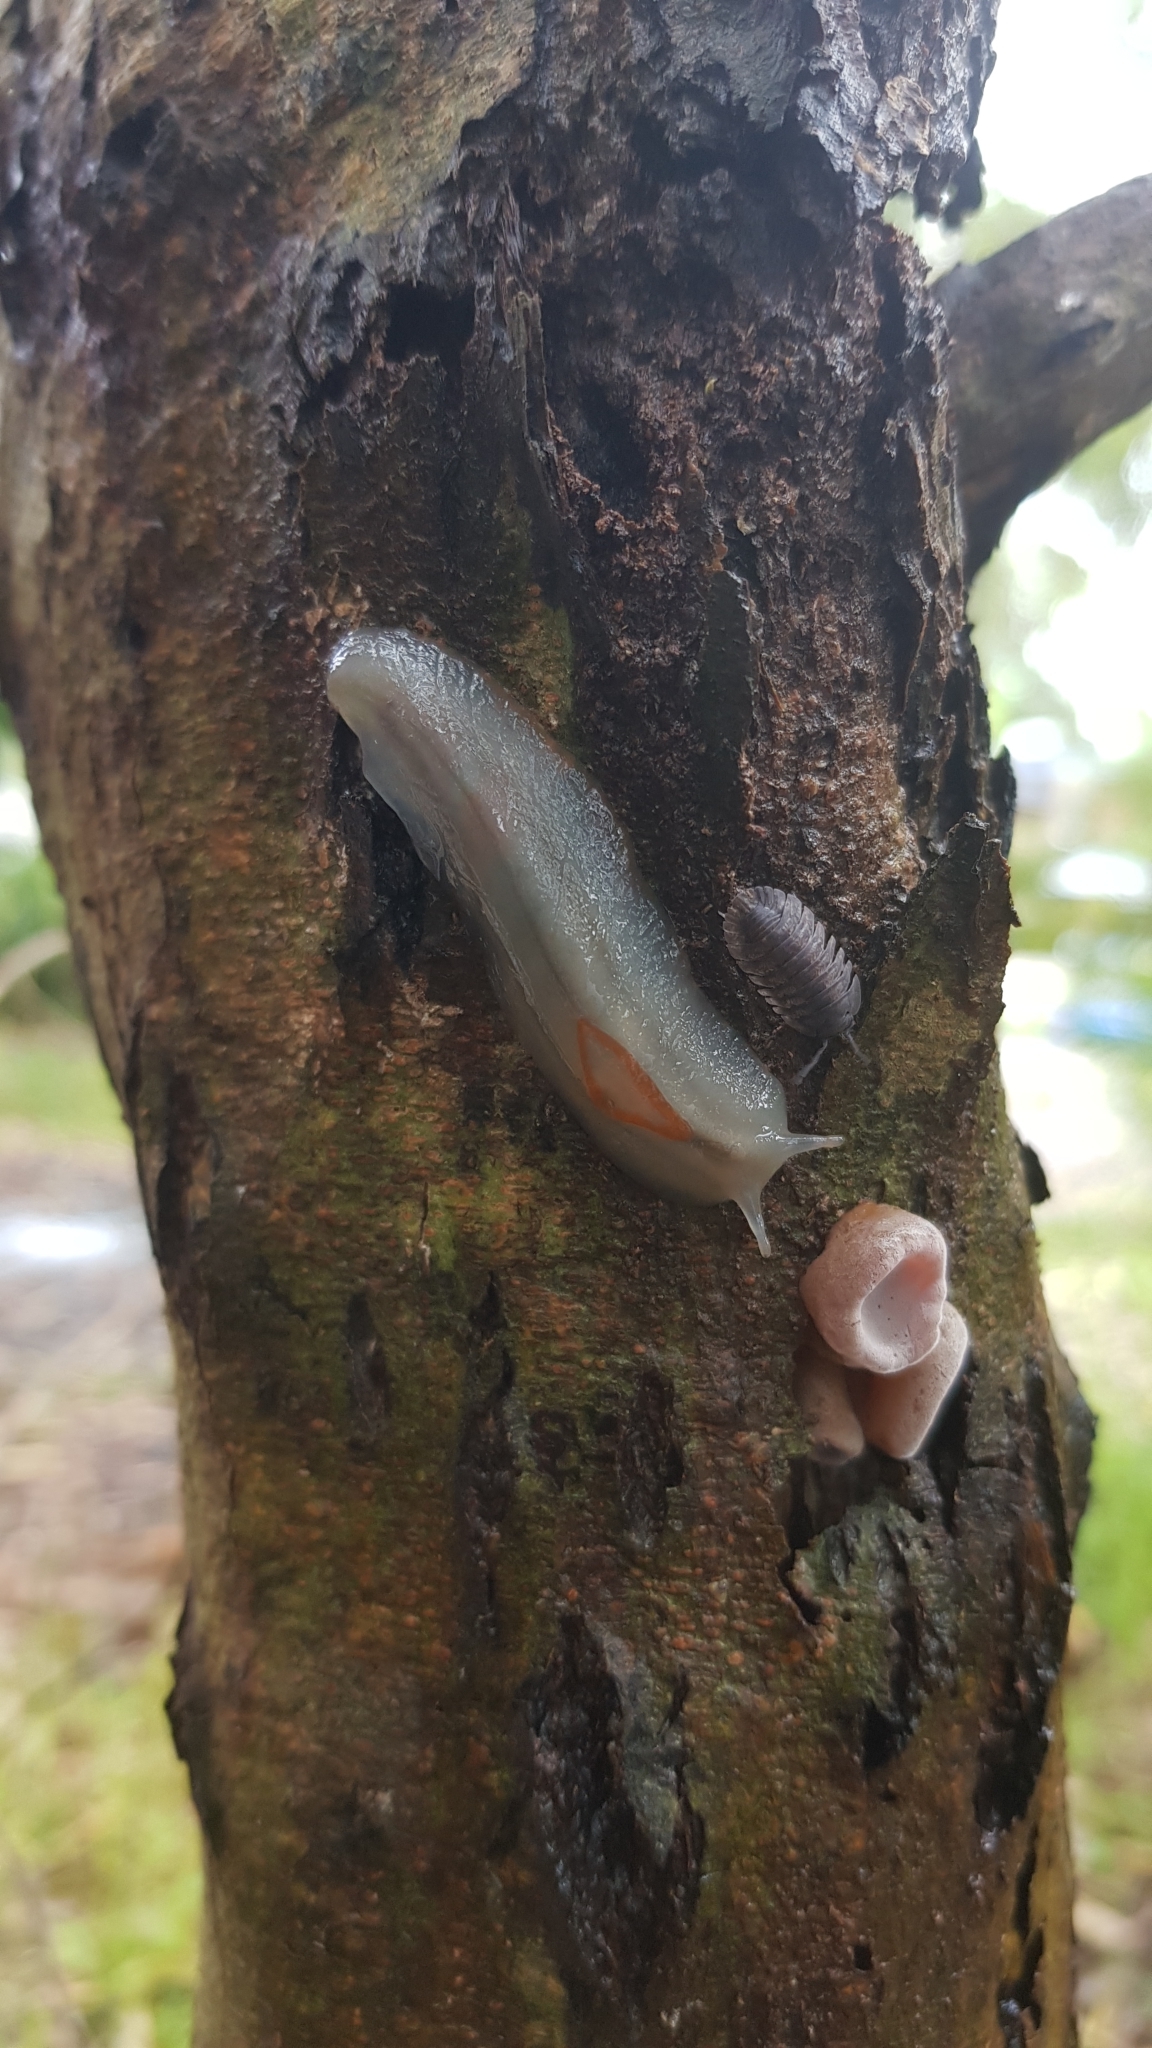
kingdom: Animalia
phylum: Mollusca
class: Gastropoda
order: Stylommatophora
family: Athoracophoridae
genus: Triboniophorus
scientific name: Triboniophorus graeffei
